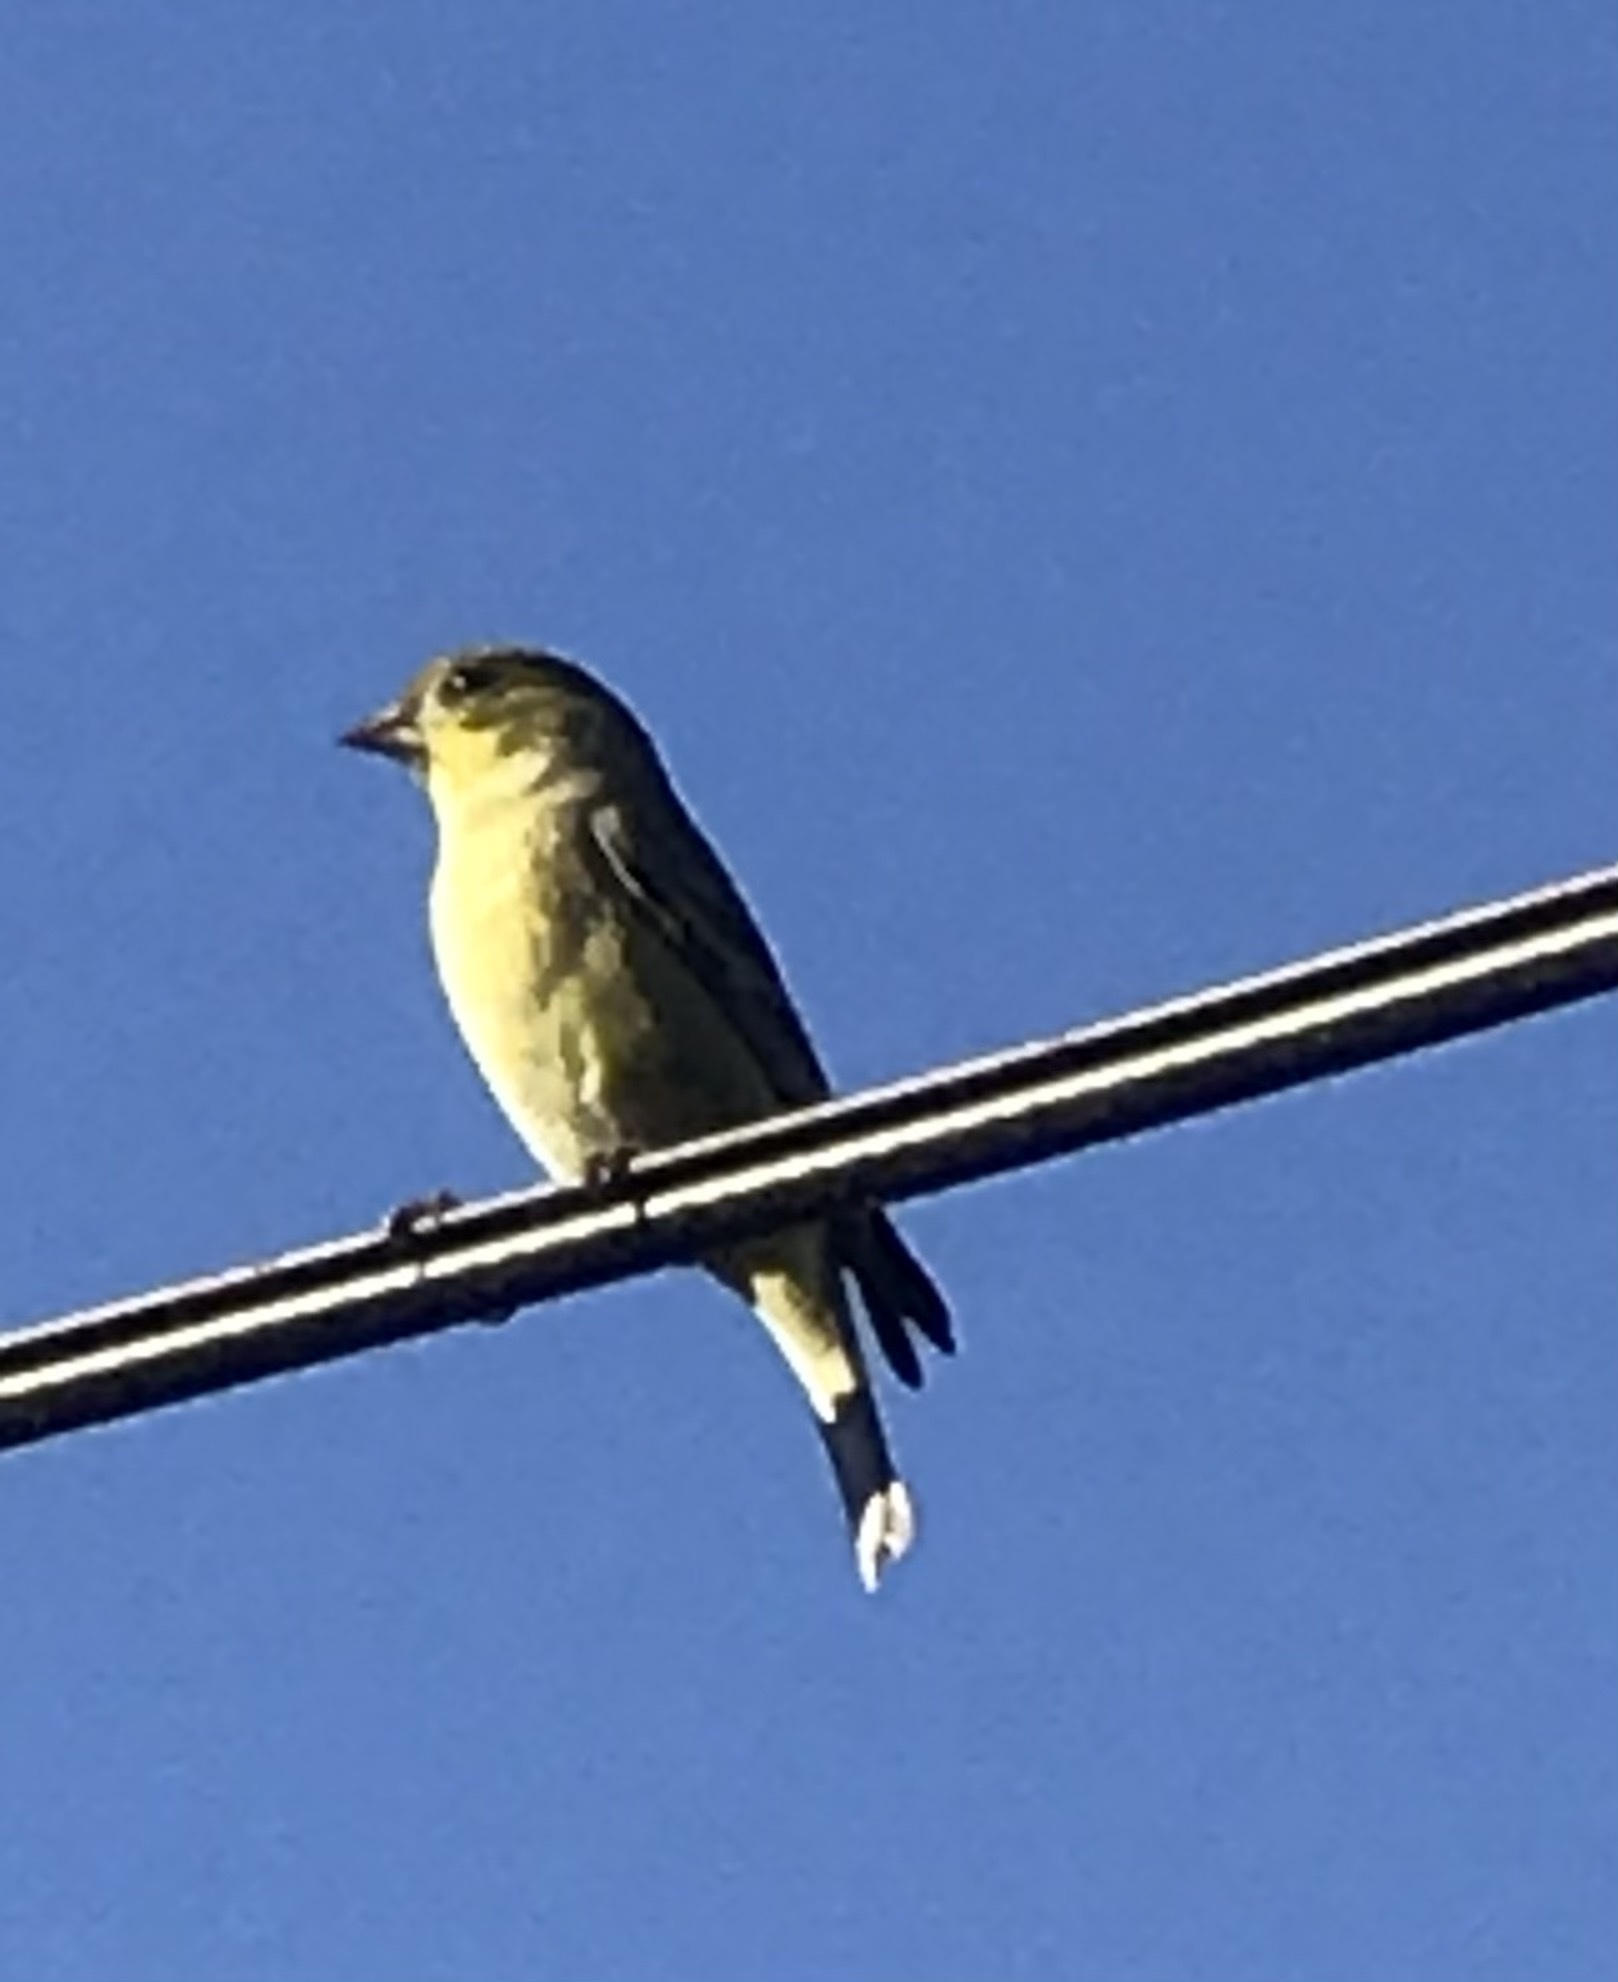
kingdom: Animalia
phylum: Chordata
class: Aves
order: Passeriformes
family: Fringillidae
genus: Spinus
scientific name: Spinus psaltria
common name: Lesser goldfinch
